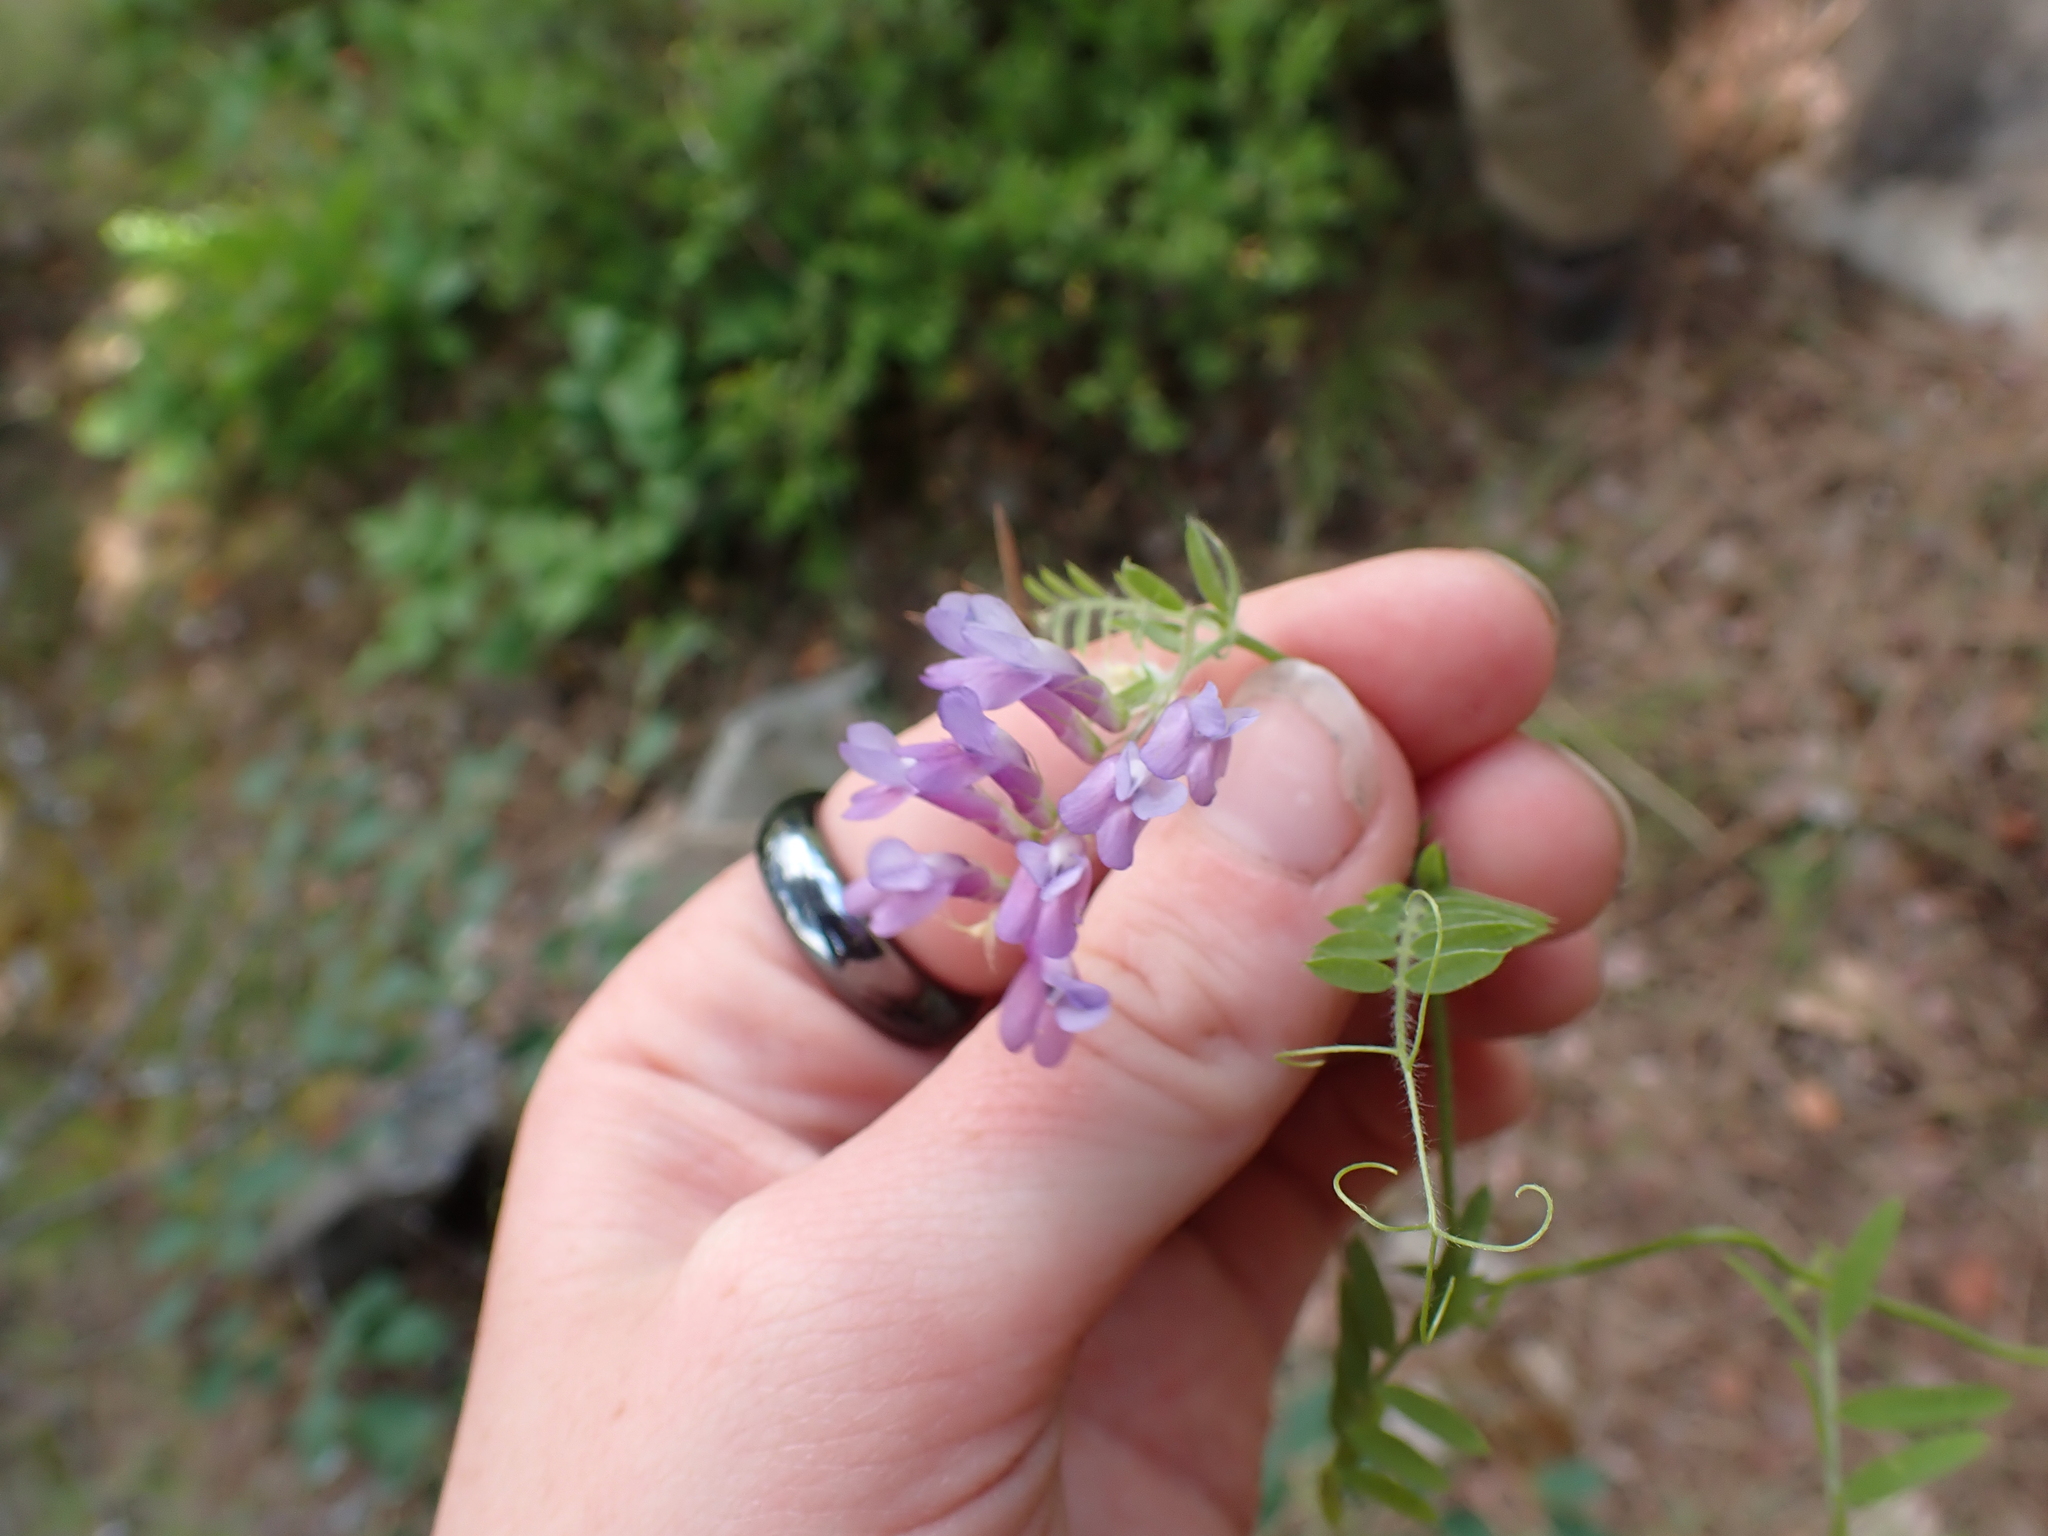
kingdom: Plantae
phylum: Tracheophyta
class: Magnoliopsida
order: Fabales
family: Fabaceae
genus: Vicia
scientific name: Vicia villosa
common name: Fodder vetch
